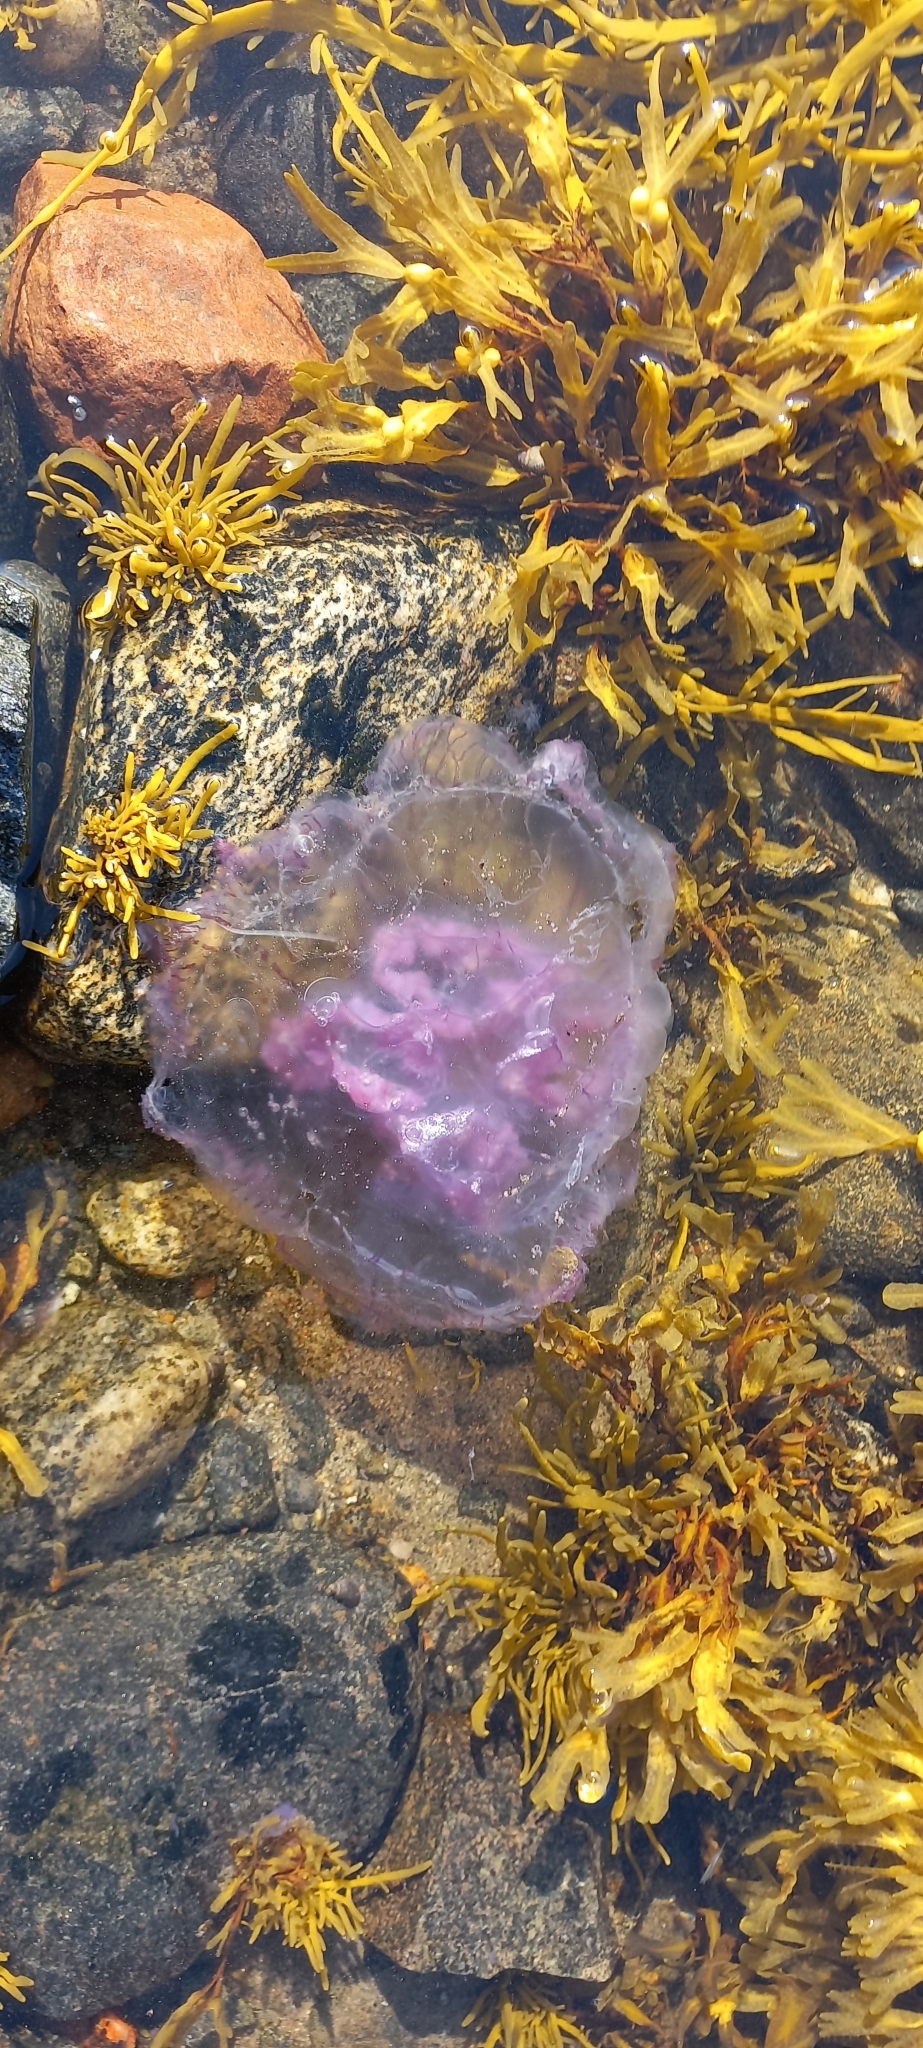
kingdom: Animalia
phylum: Cnidaria
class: Scyphozoa
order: Semaeostomeae
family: Ulmaridae
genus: Aurelia
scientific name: Aurelia aurita
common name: Moon jellyfish
